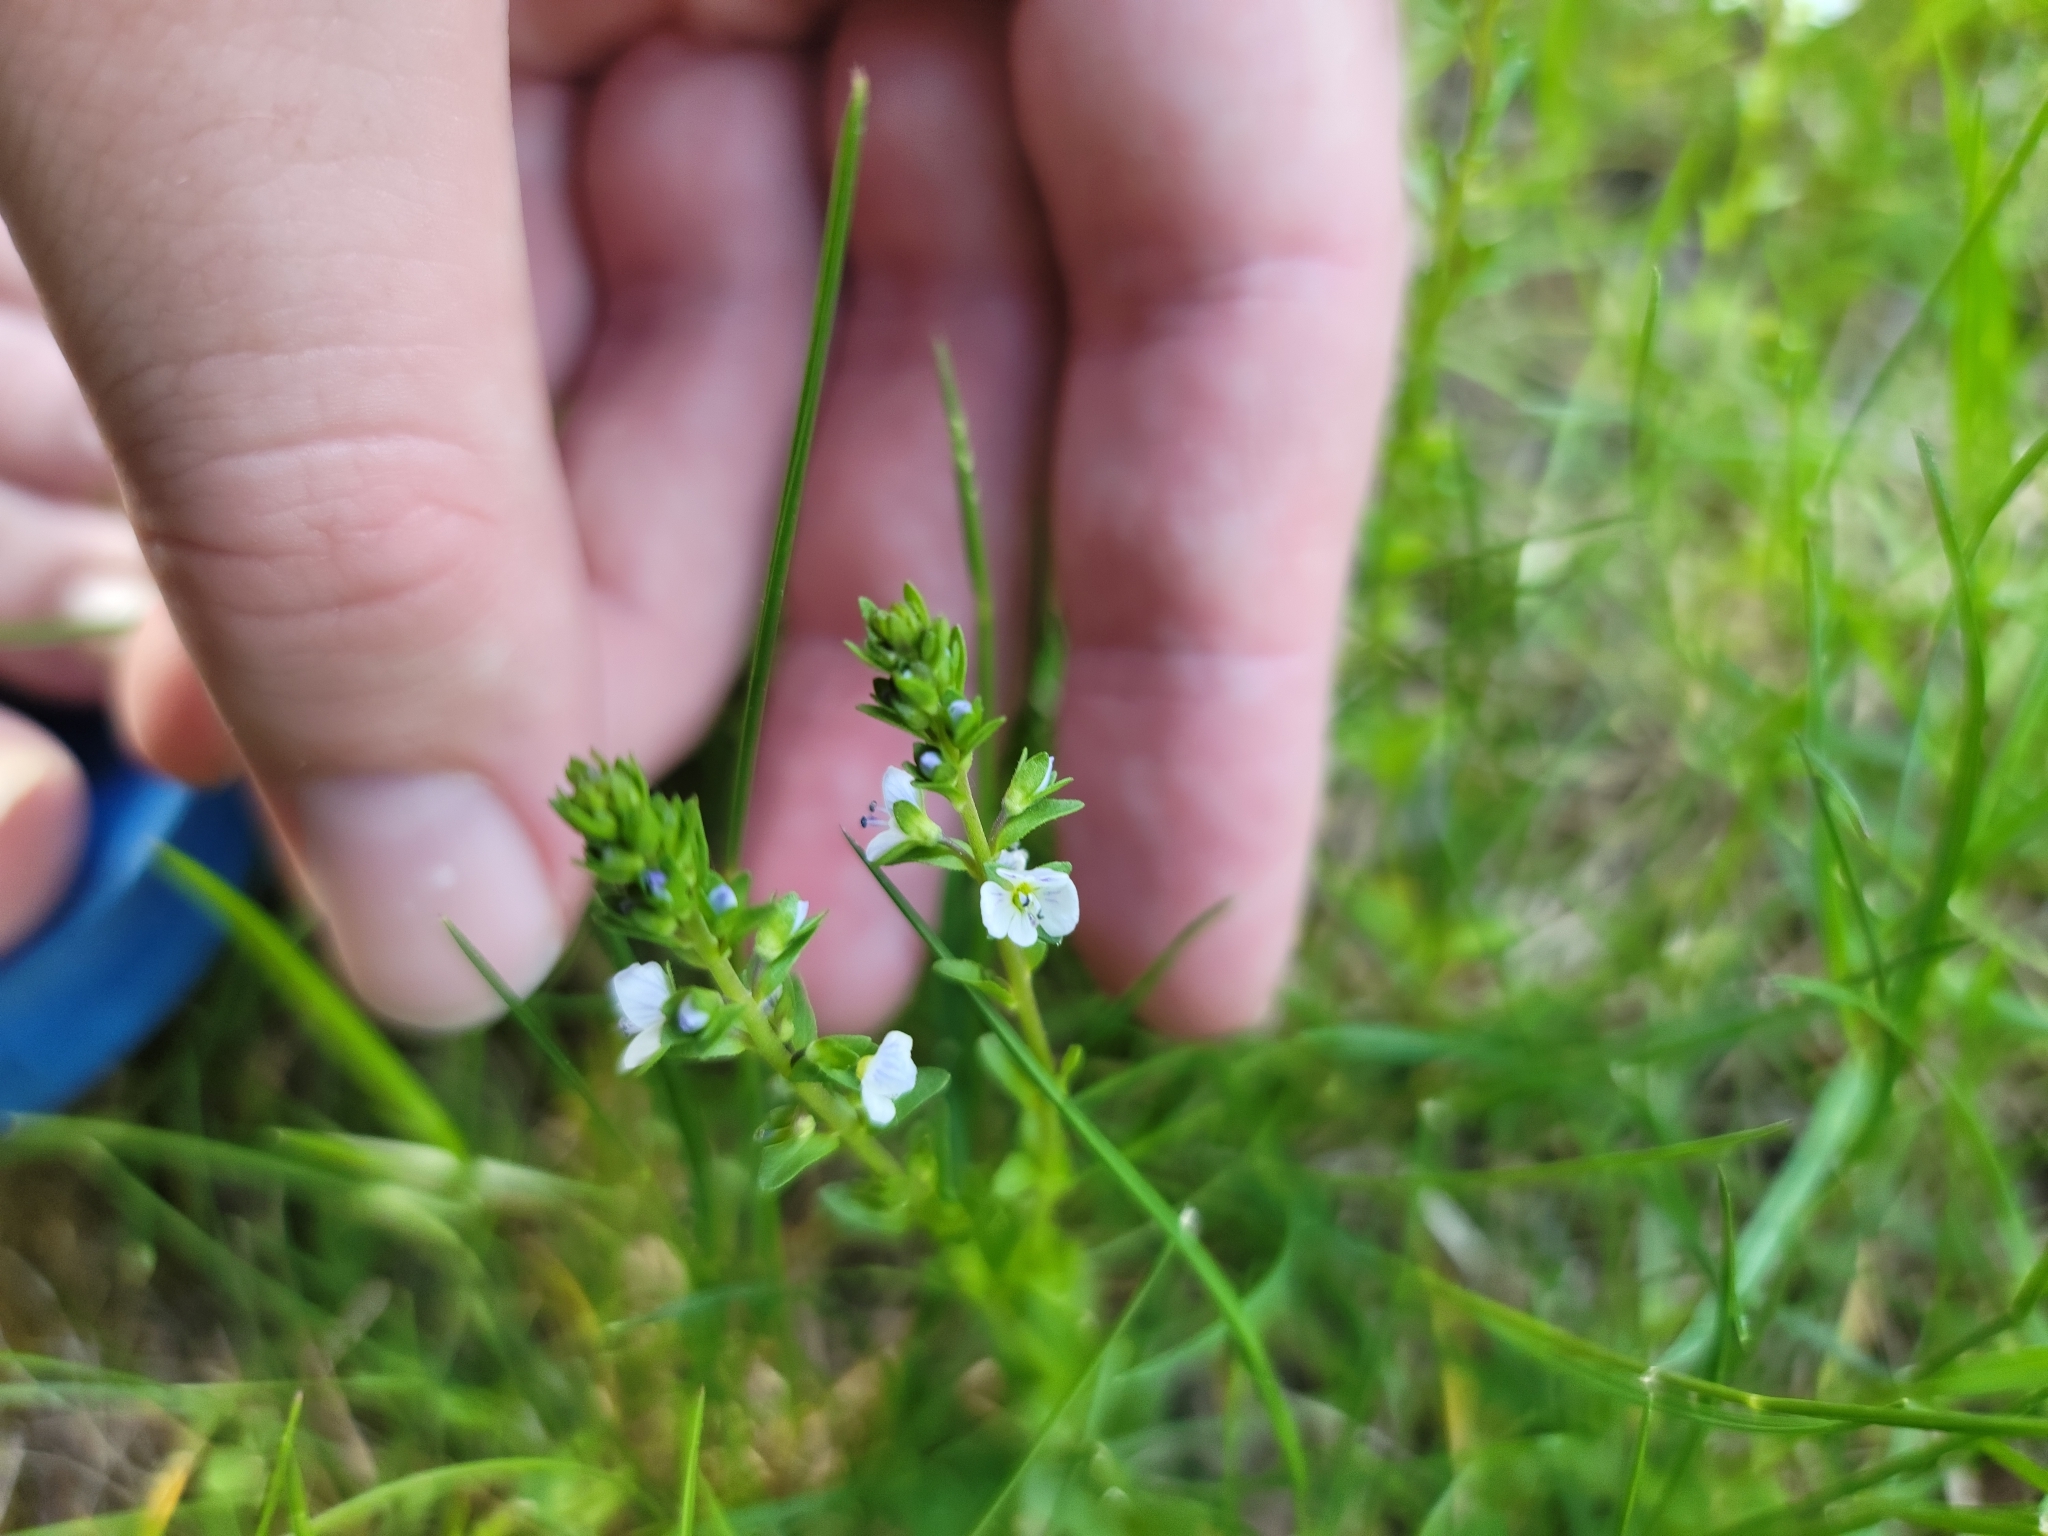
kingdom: Plantae
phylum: Tracheophyta
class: Magnoliopsida
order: Lamiales
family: Plantaginaceae
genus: Veronica
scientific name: Veronica serpyllifolia
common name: Thyme-leaved speedwell
